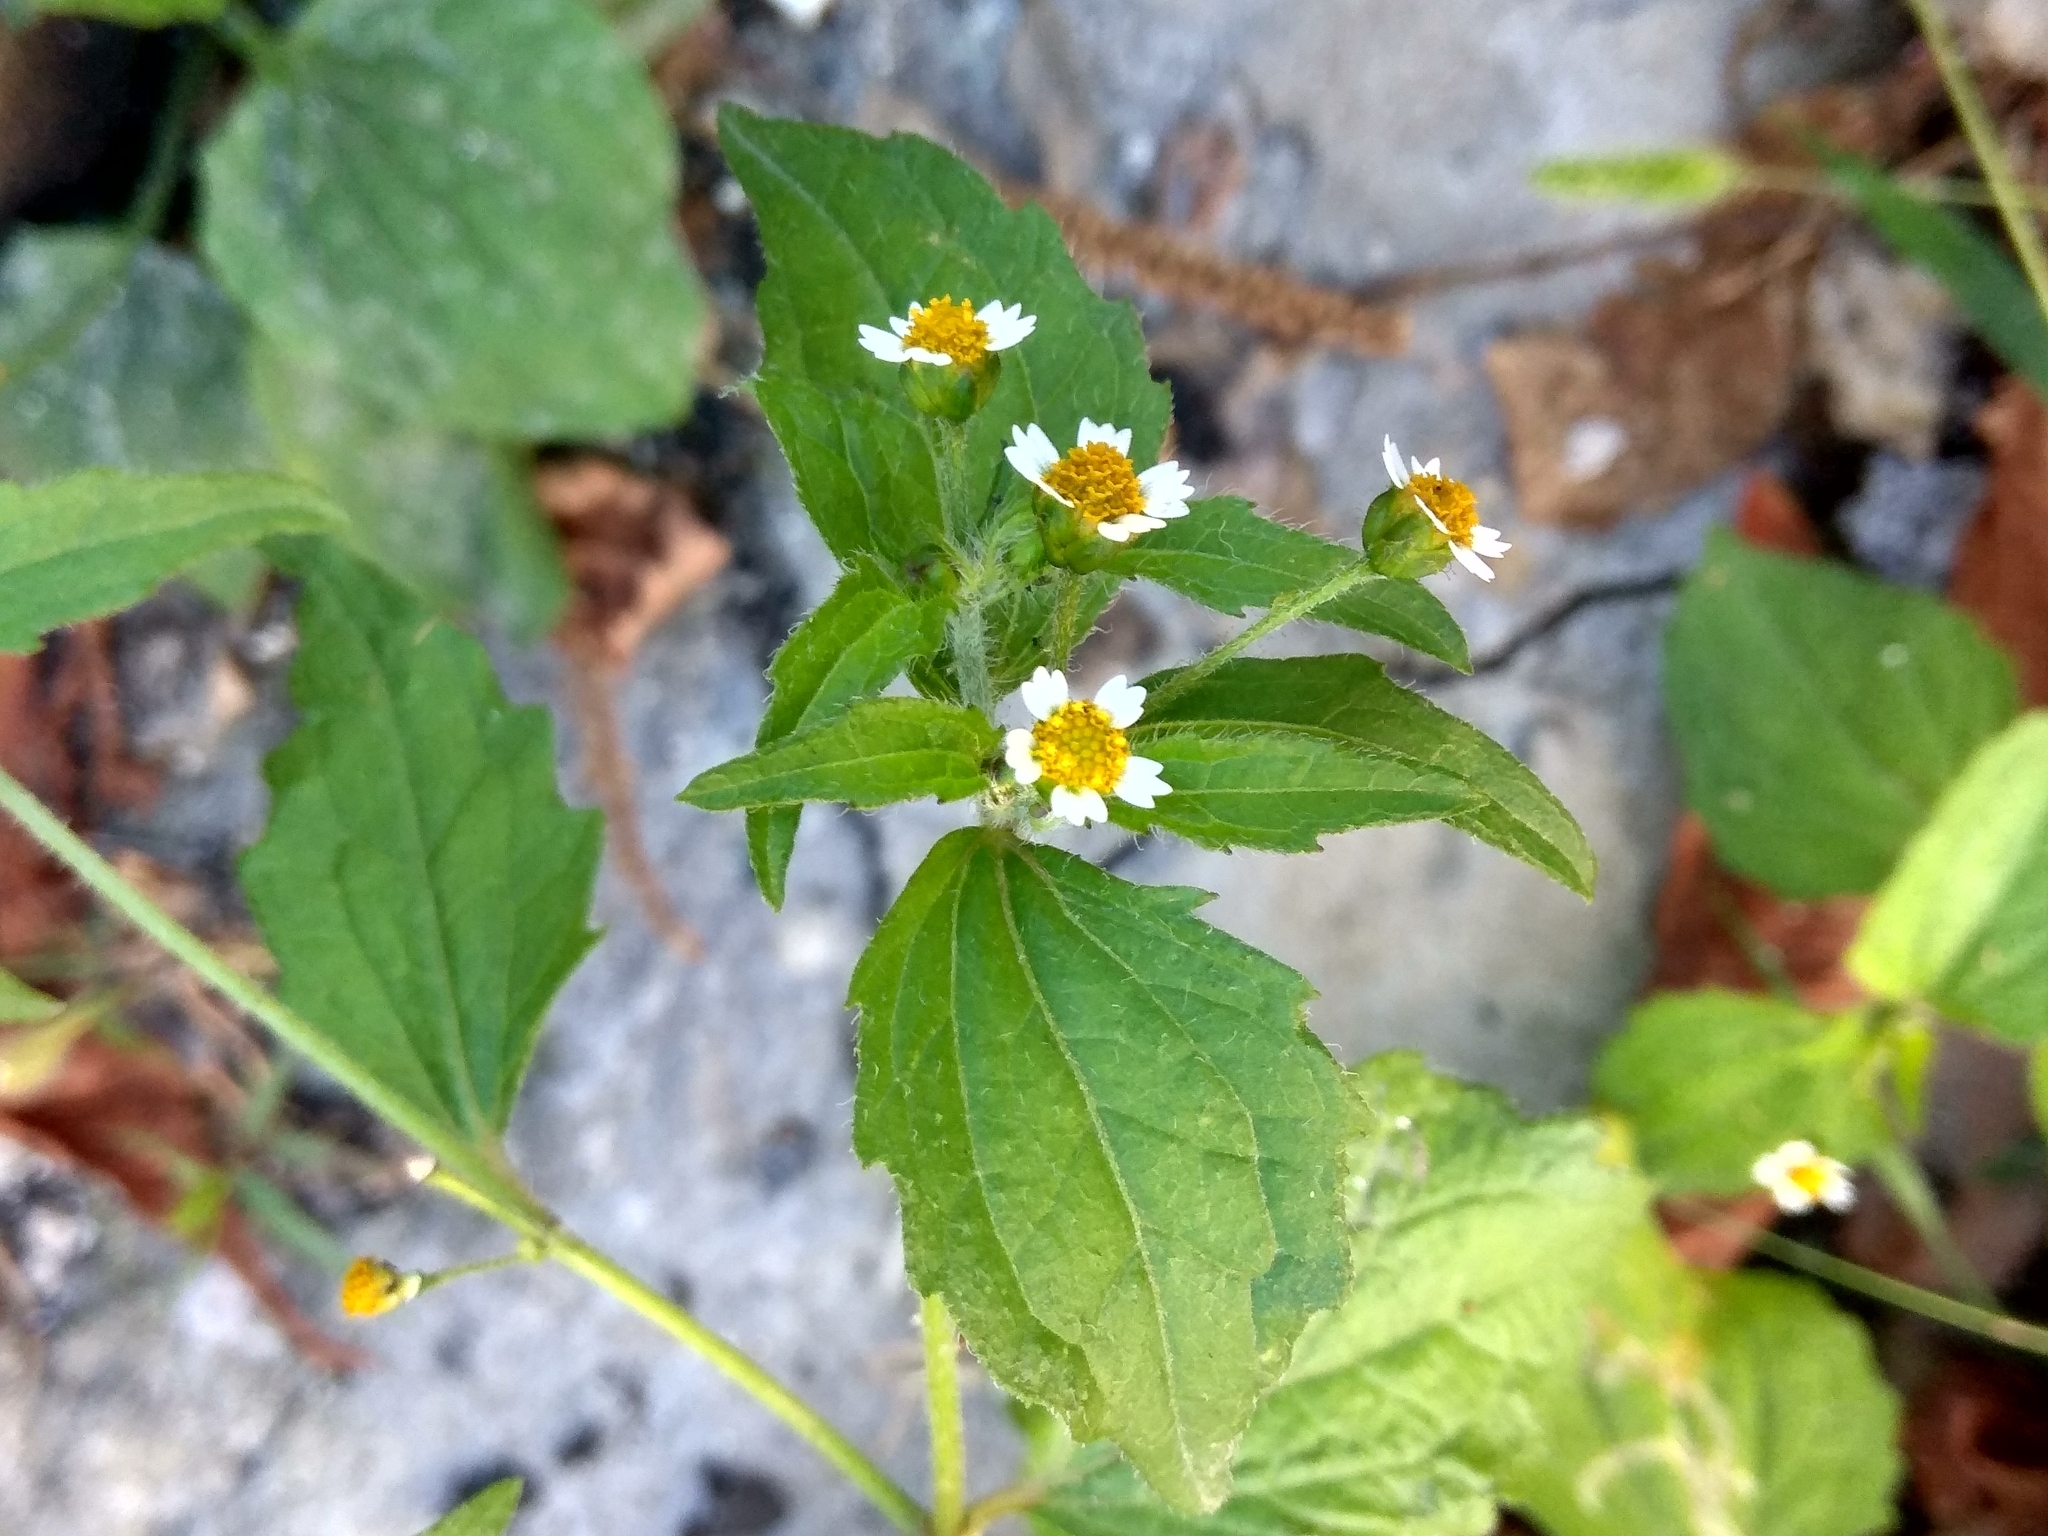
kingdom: Plantae
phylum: Tracheophyta
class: Magnoliopsida
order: Asterales
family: Asteraceae
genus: Galinsoga
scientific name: Galinsoga quadriradiata
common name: Shaggy soldier
